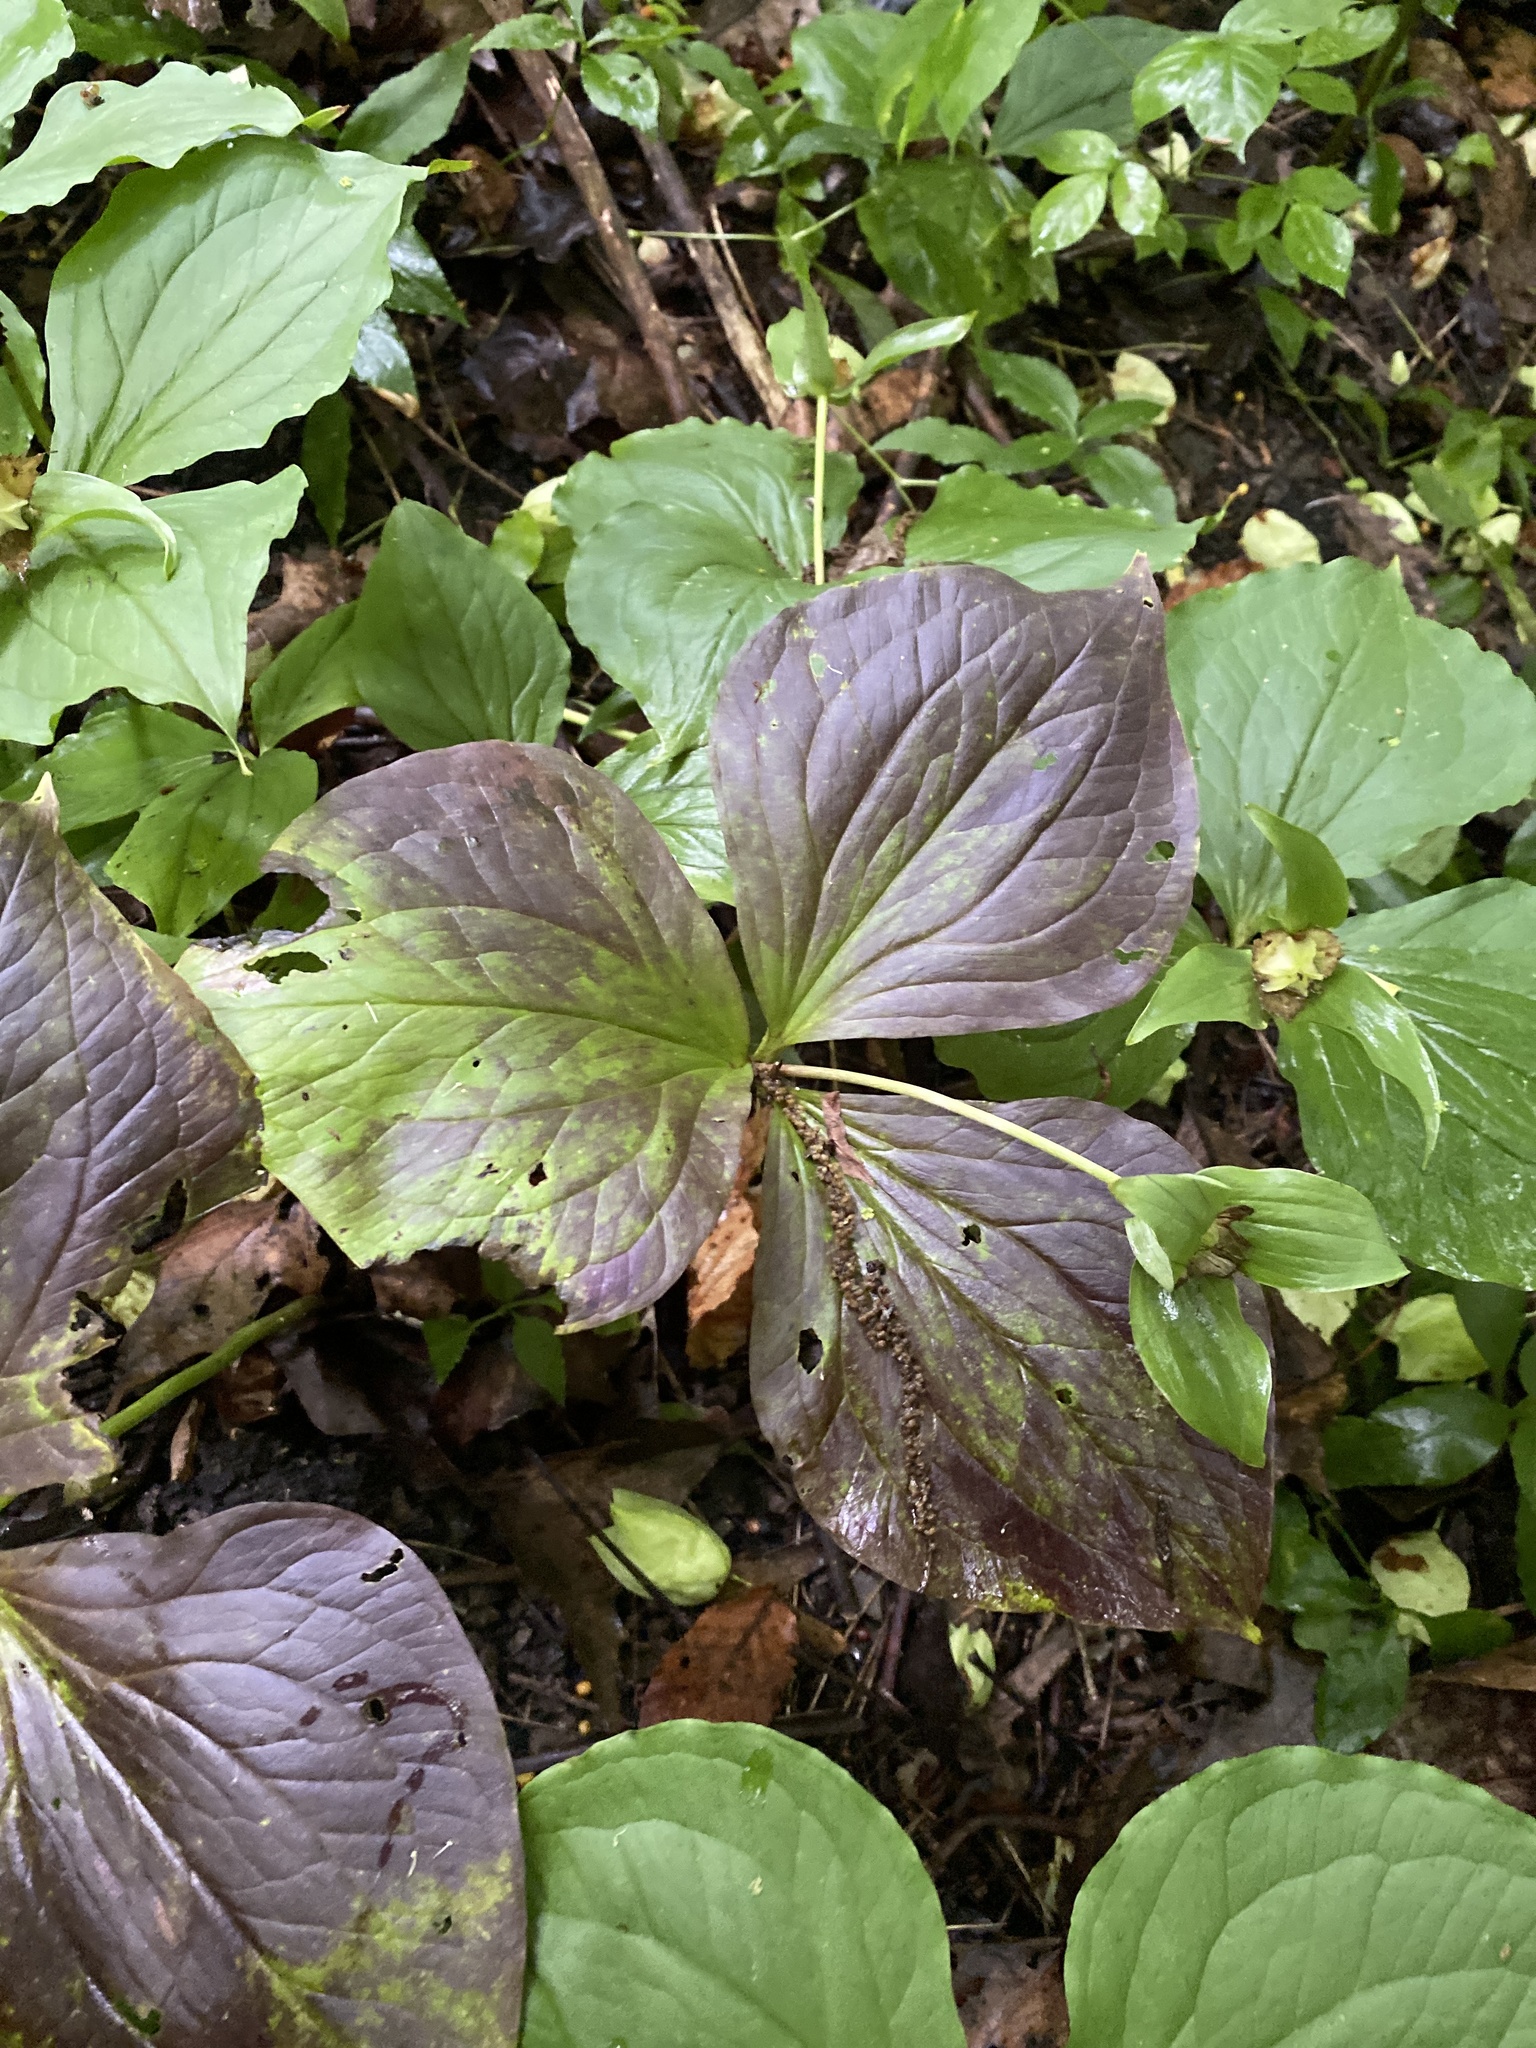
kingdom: Plantae
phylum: Tracheophyta
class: Liliopsida
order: Liliales
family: Melanthiaceae
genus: Trillium
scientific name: Trillium grandiflorum
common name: Great white trillium
